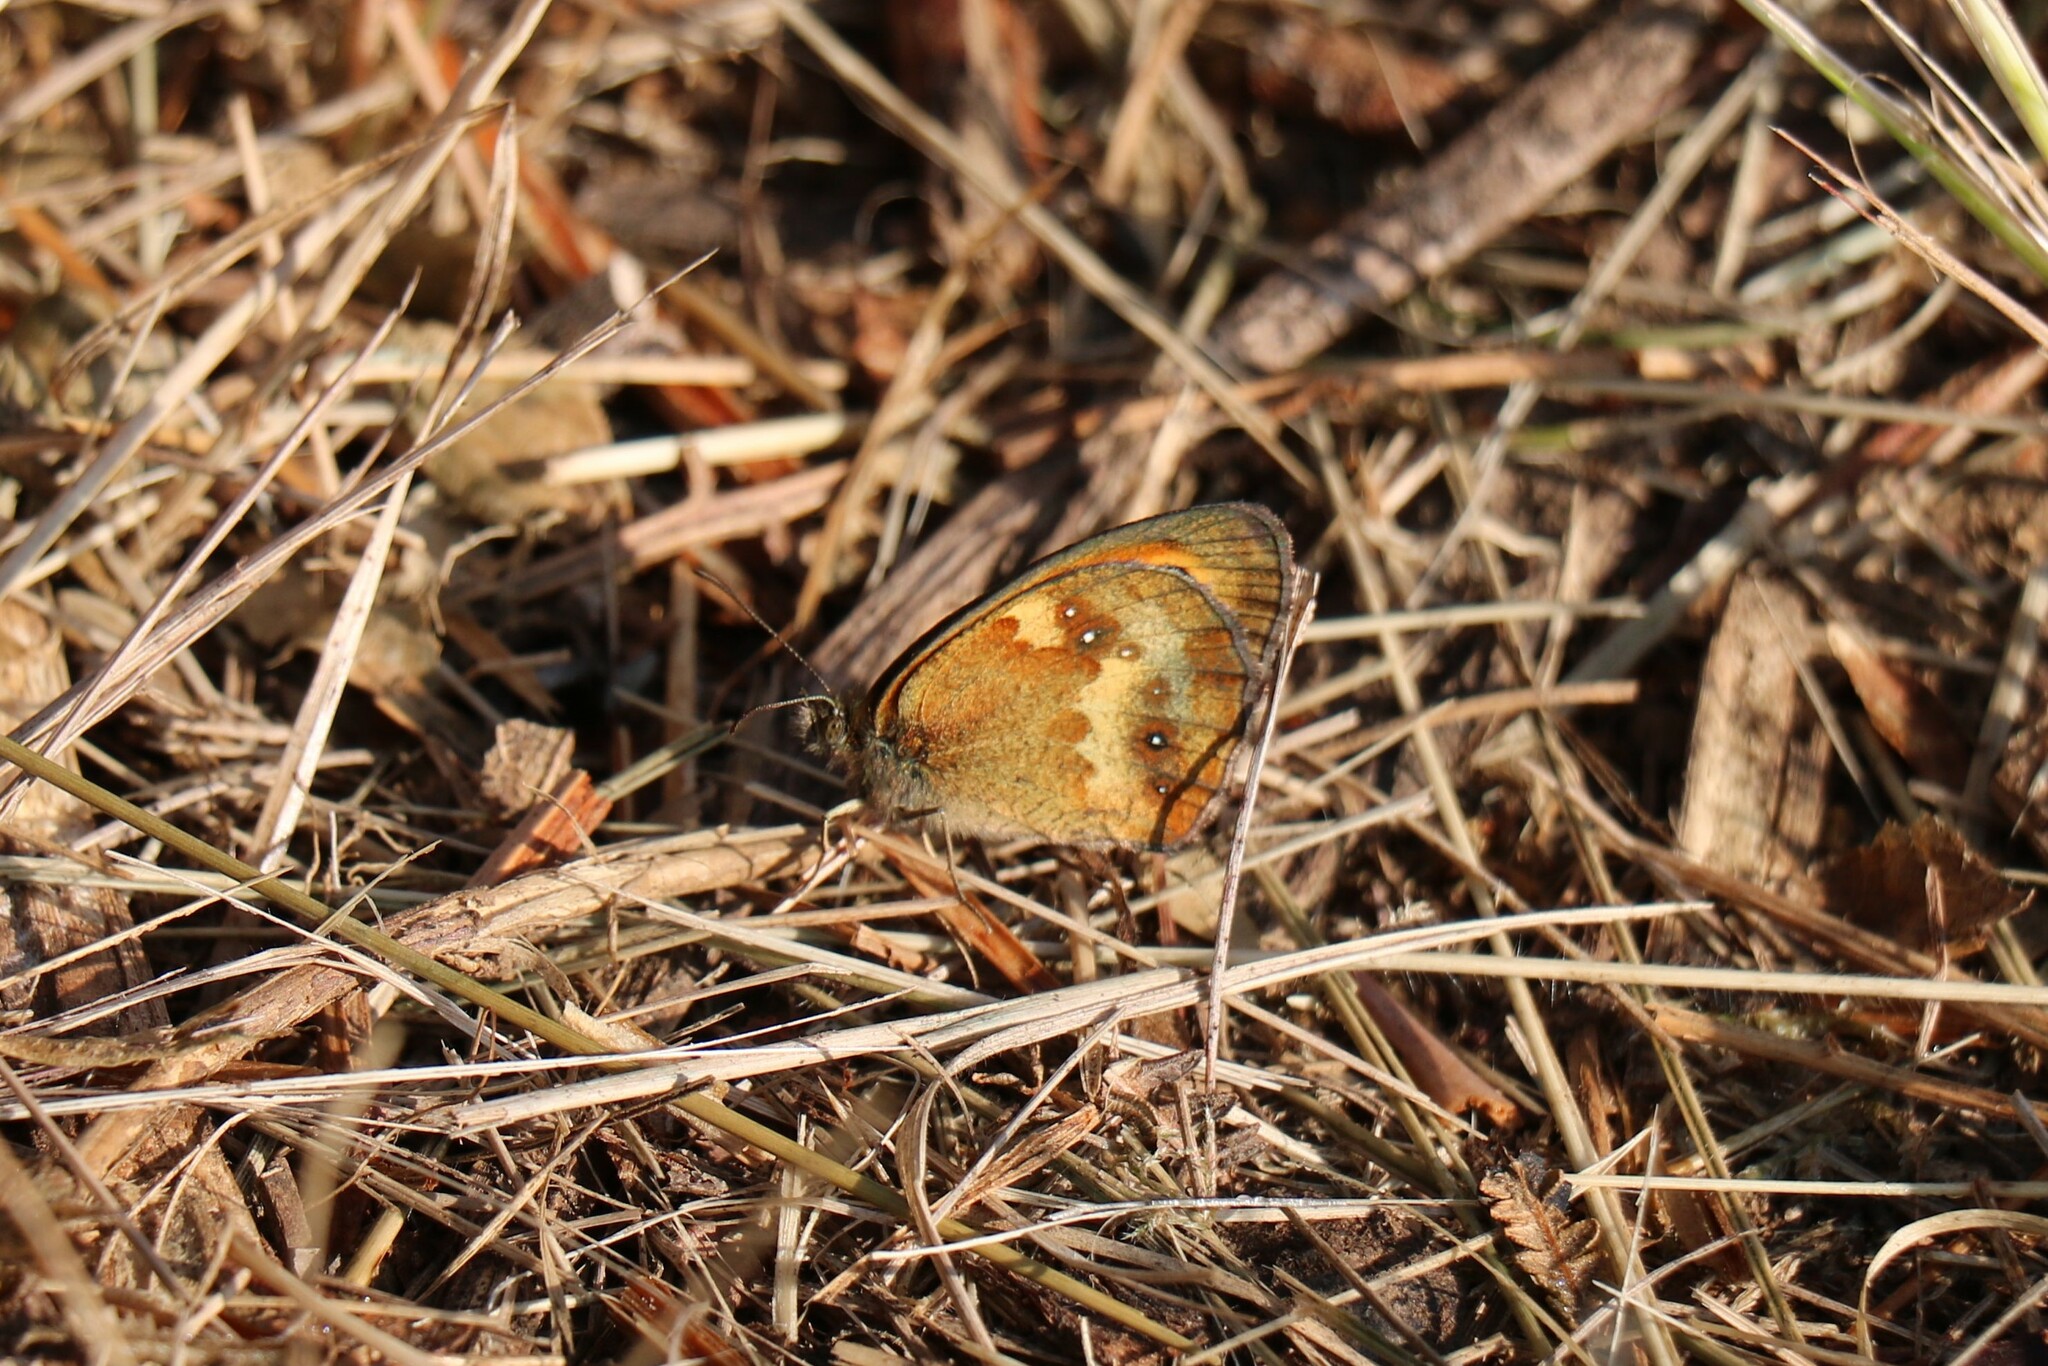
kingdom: Animalia
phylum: Arthropoda
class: Insecta
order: Lepidoptera
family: Nymphalidae
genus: Pyronia
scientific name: Pyronia tithonus
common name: Gatekeeper
